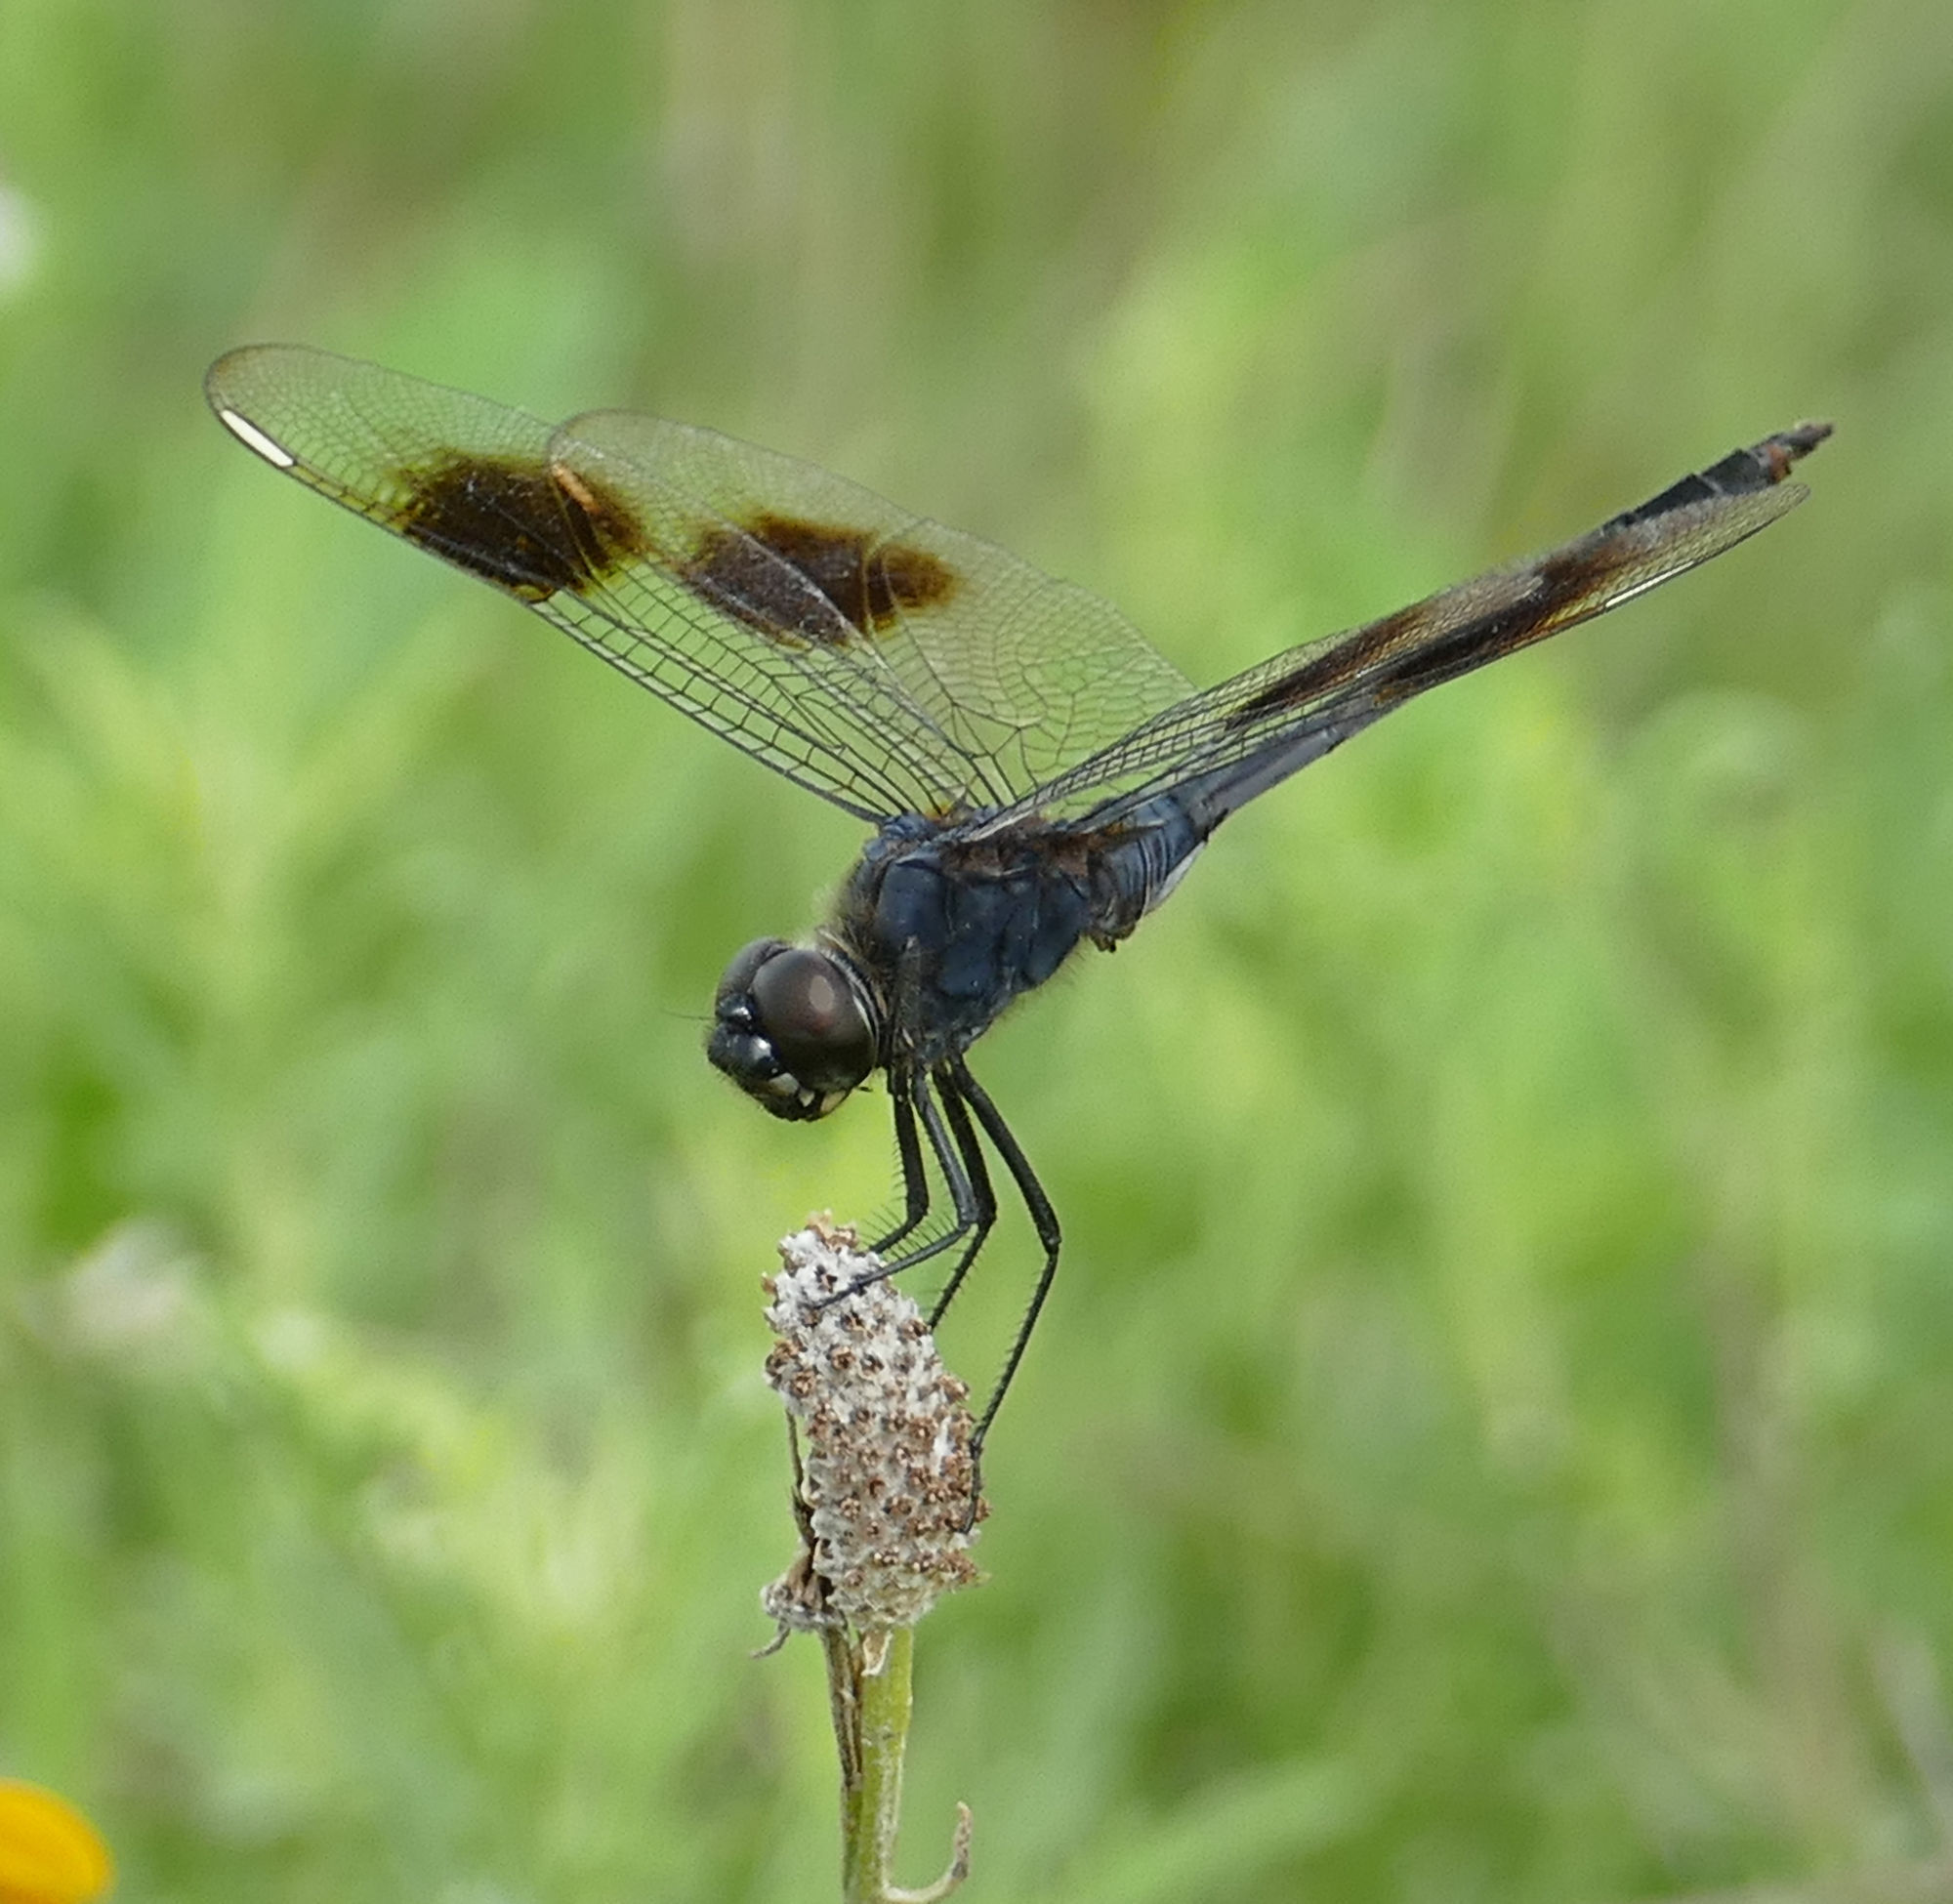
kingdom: Animalia
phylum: Arthropoda
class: Insecta
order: Odonata
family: Libellulidae
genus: Brachymesia
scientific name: Brachymesia gravida
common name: Four-spotted pennant
